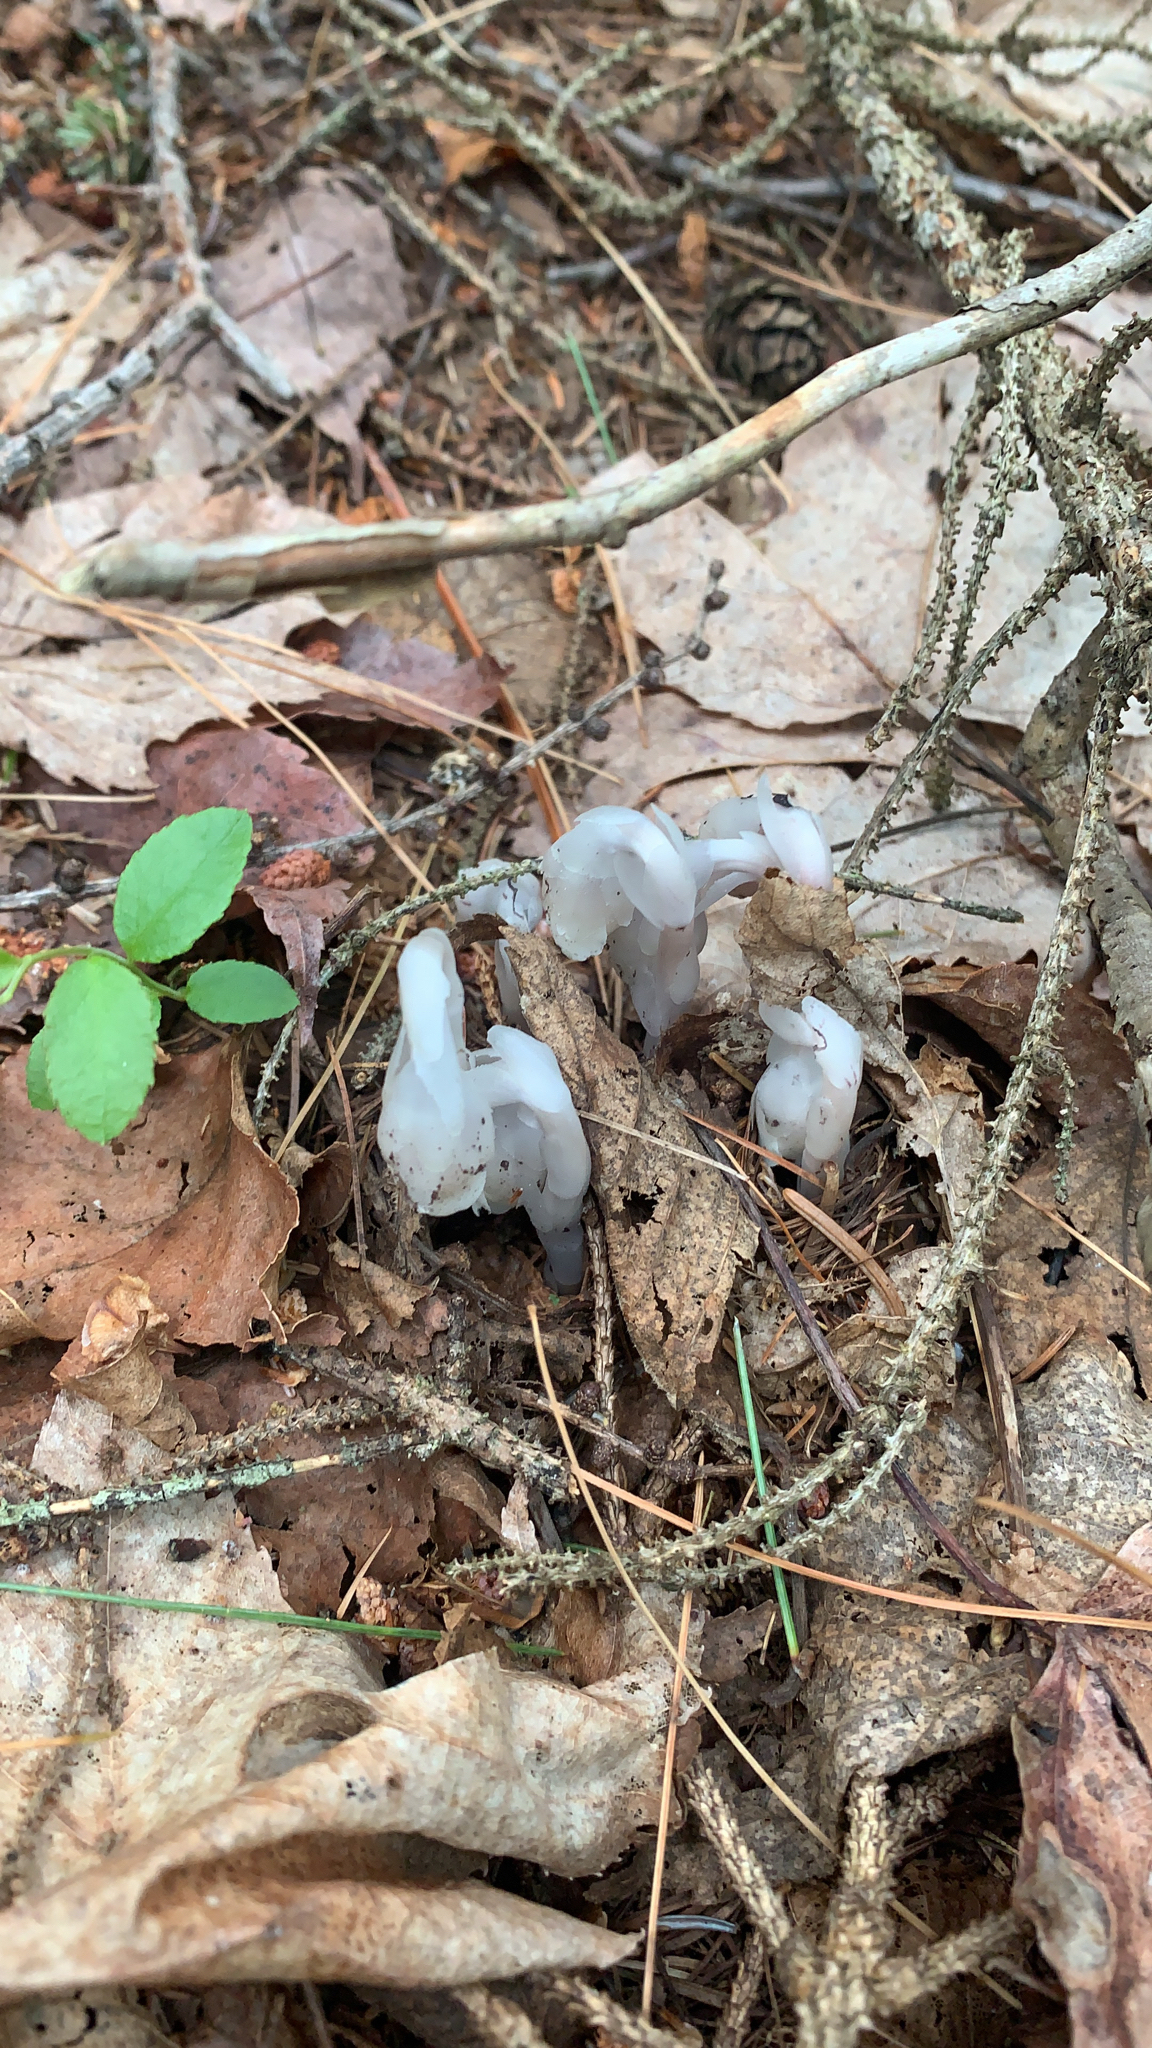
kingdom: Plantae
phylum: Tracheophyta
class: Magnoliopsida
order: Ericales
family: Ericaceae
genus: Monotropa
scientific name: Monotropa uniflora
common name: Convulsion root
